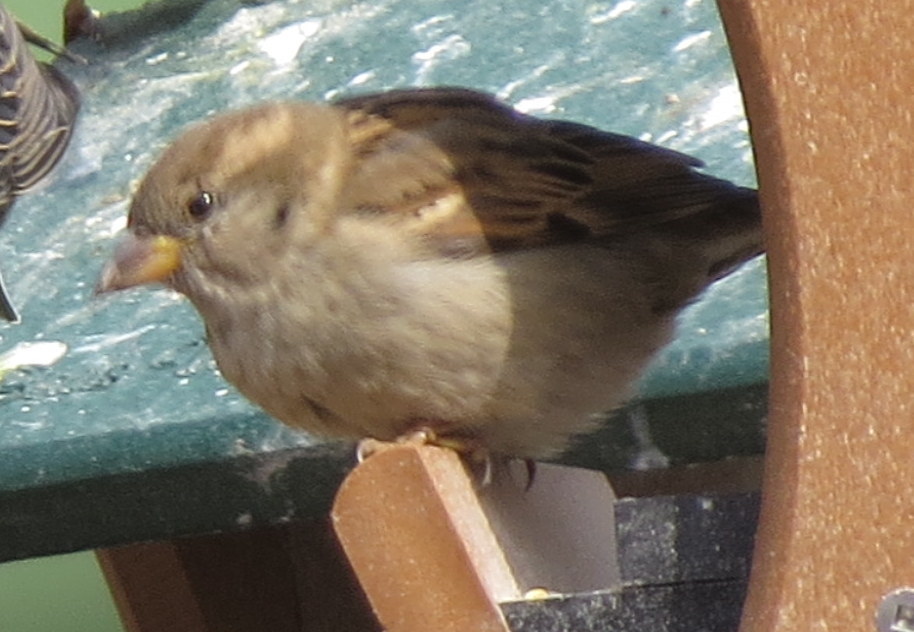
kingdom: Animalia
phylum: Chordata
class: Aves
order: Passeriformes
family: Passeridae
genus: Passer
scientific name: Passer domesticus
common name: House sparrow
